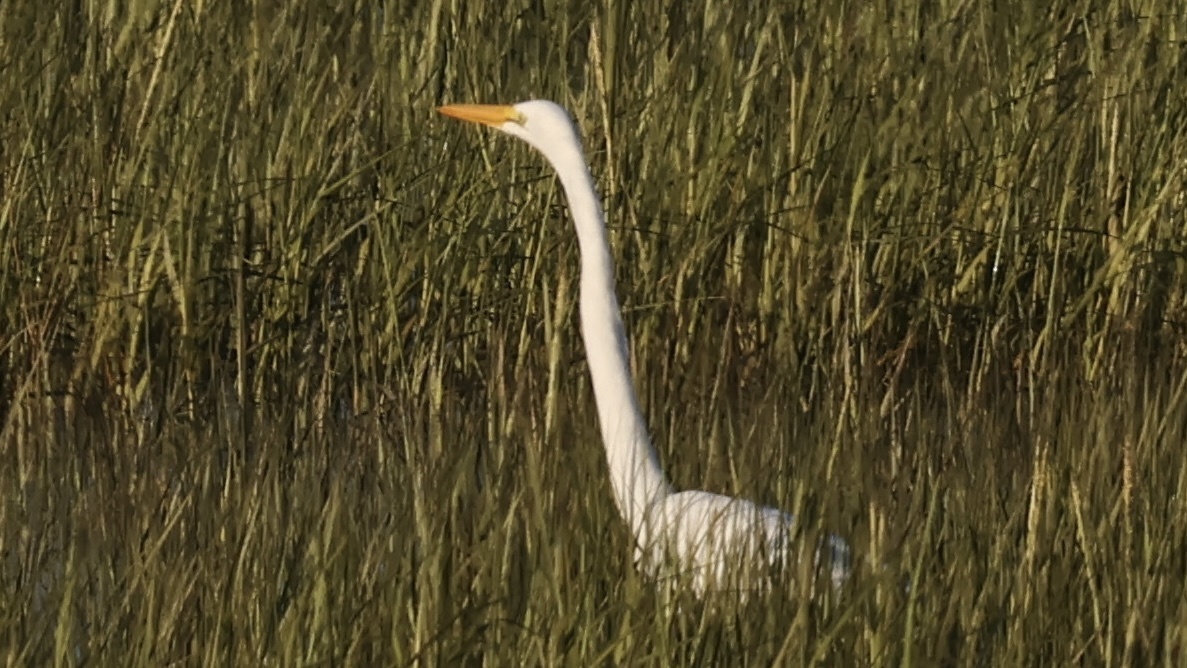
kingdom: Animalia
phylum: Chordata
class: Aves
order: Pelecaniformes
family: Ardeidae
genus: Ardea
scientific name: Ardea alba
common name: Great egret
